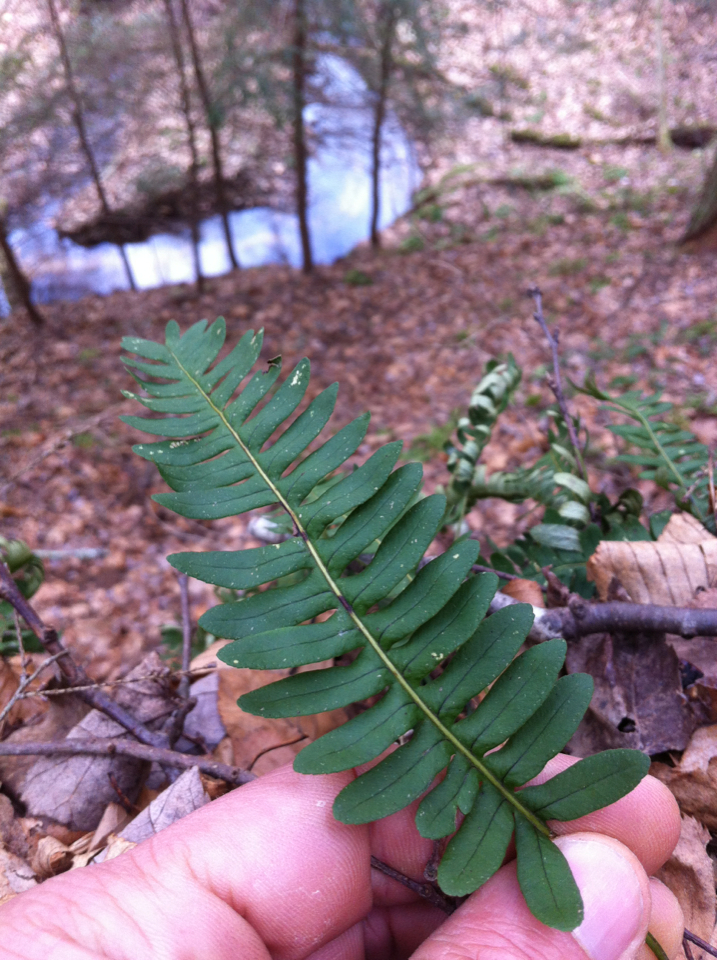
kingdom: Plantae
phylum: Tracheophyta
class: Polypodiopsida
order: Polypodiales
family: Polypodiaceae
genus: Polypodium
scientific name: Polypodium virginianum
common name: American wall fern
